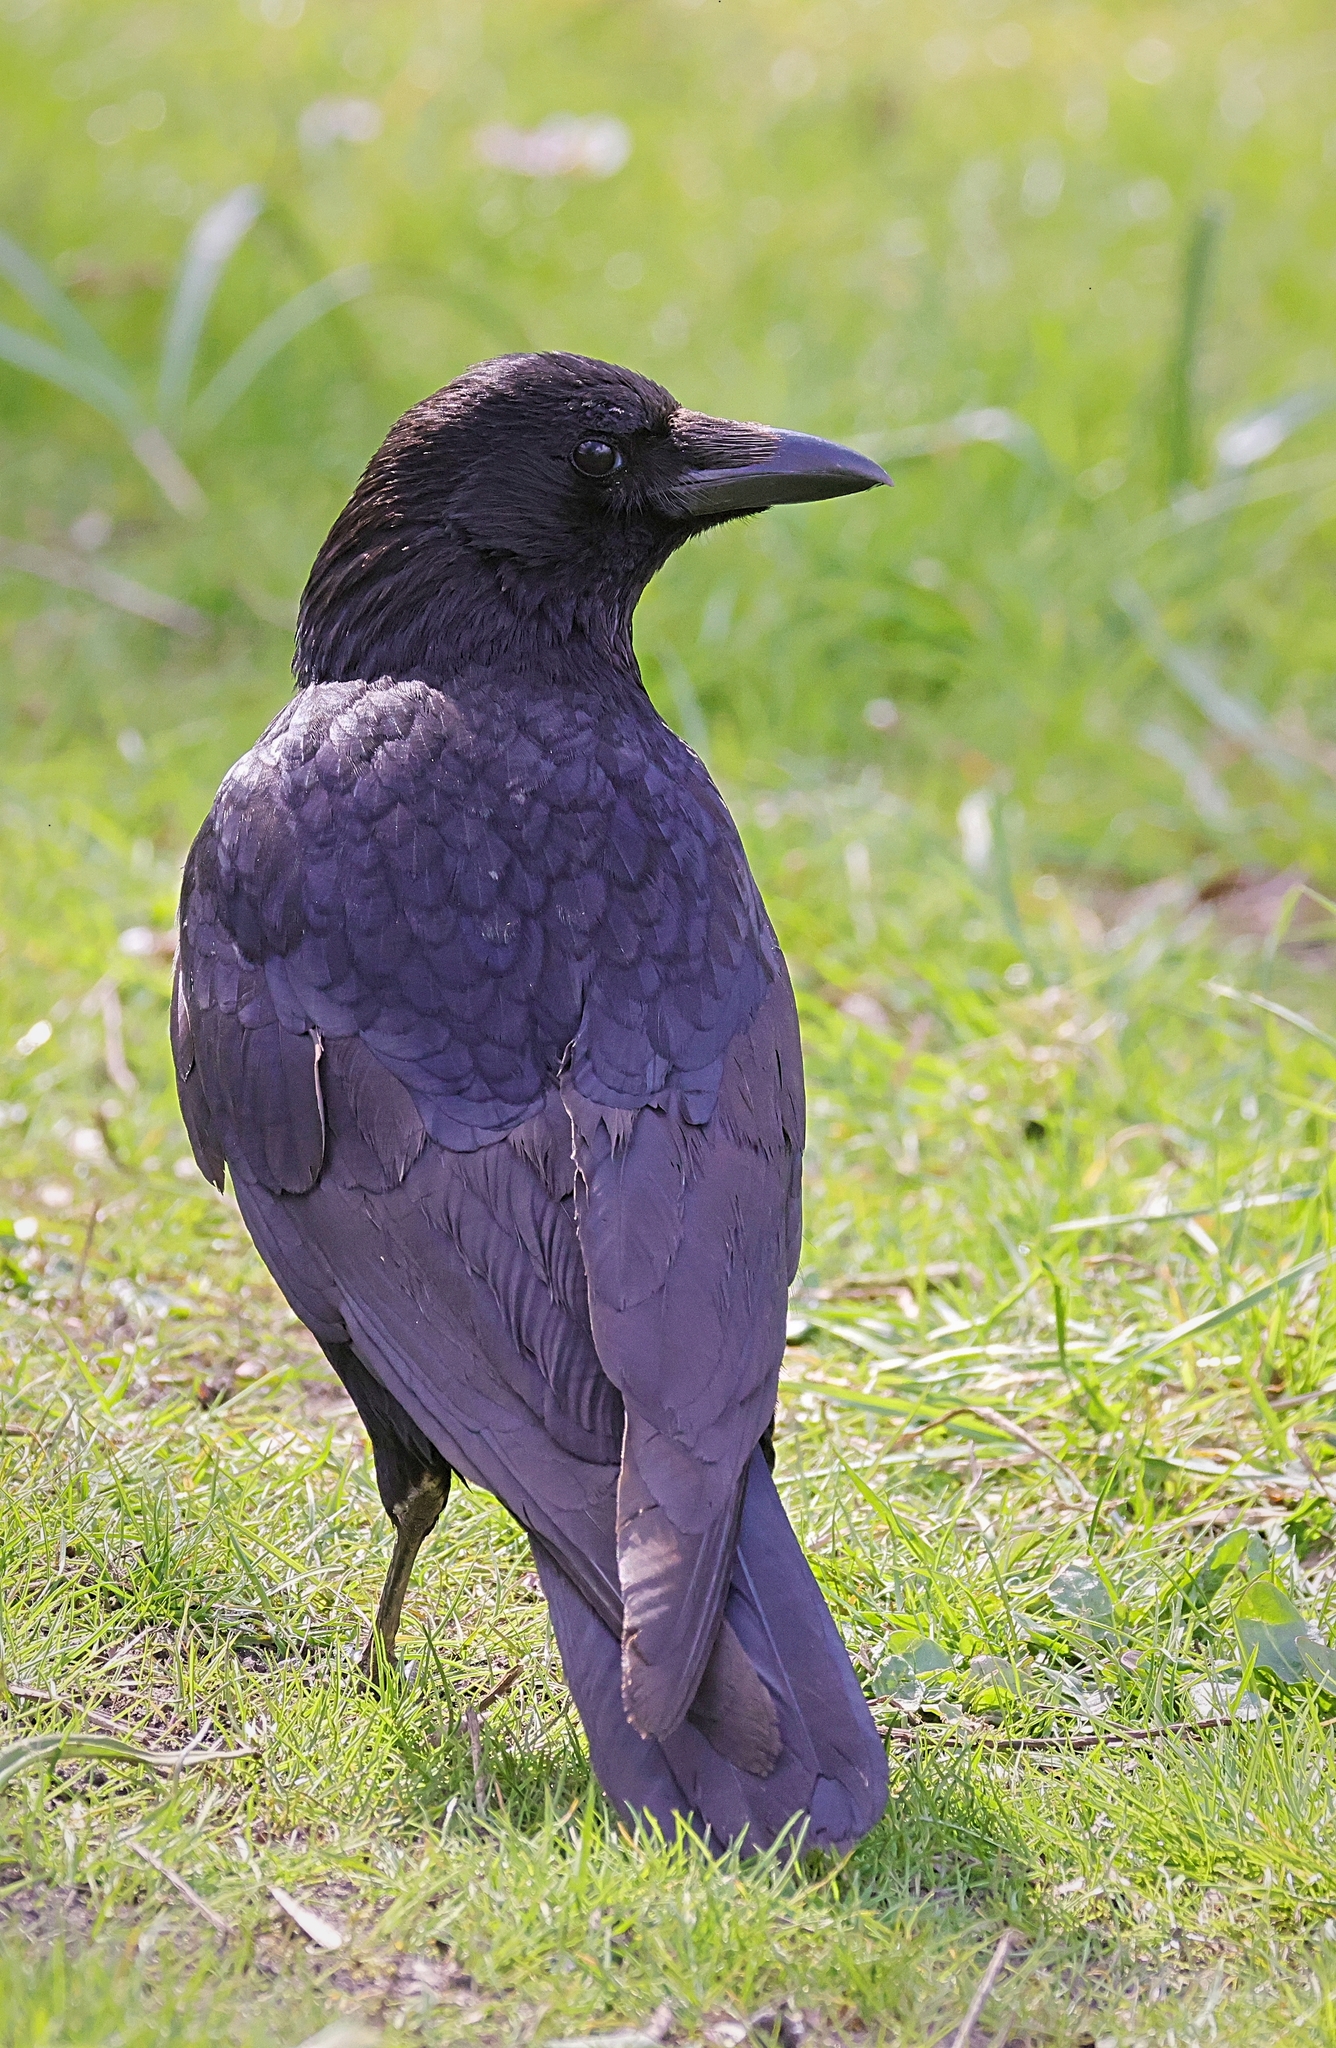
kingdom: Animalia
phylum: Chordata
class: Aves
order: Passeriformes
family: Corvidae
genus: Corvus
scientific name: Corvus corone
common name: Carrion crow
